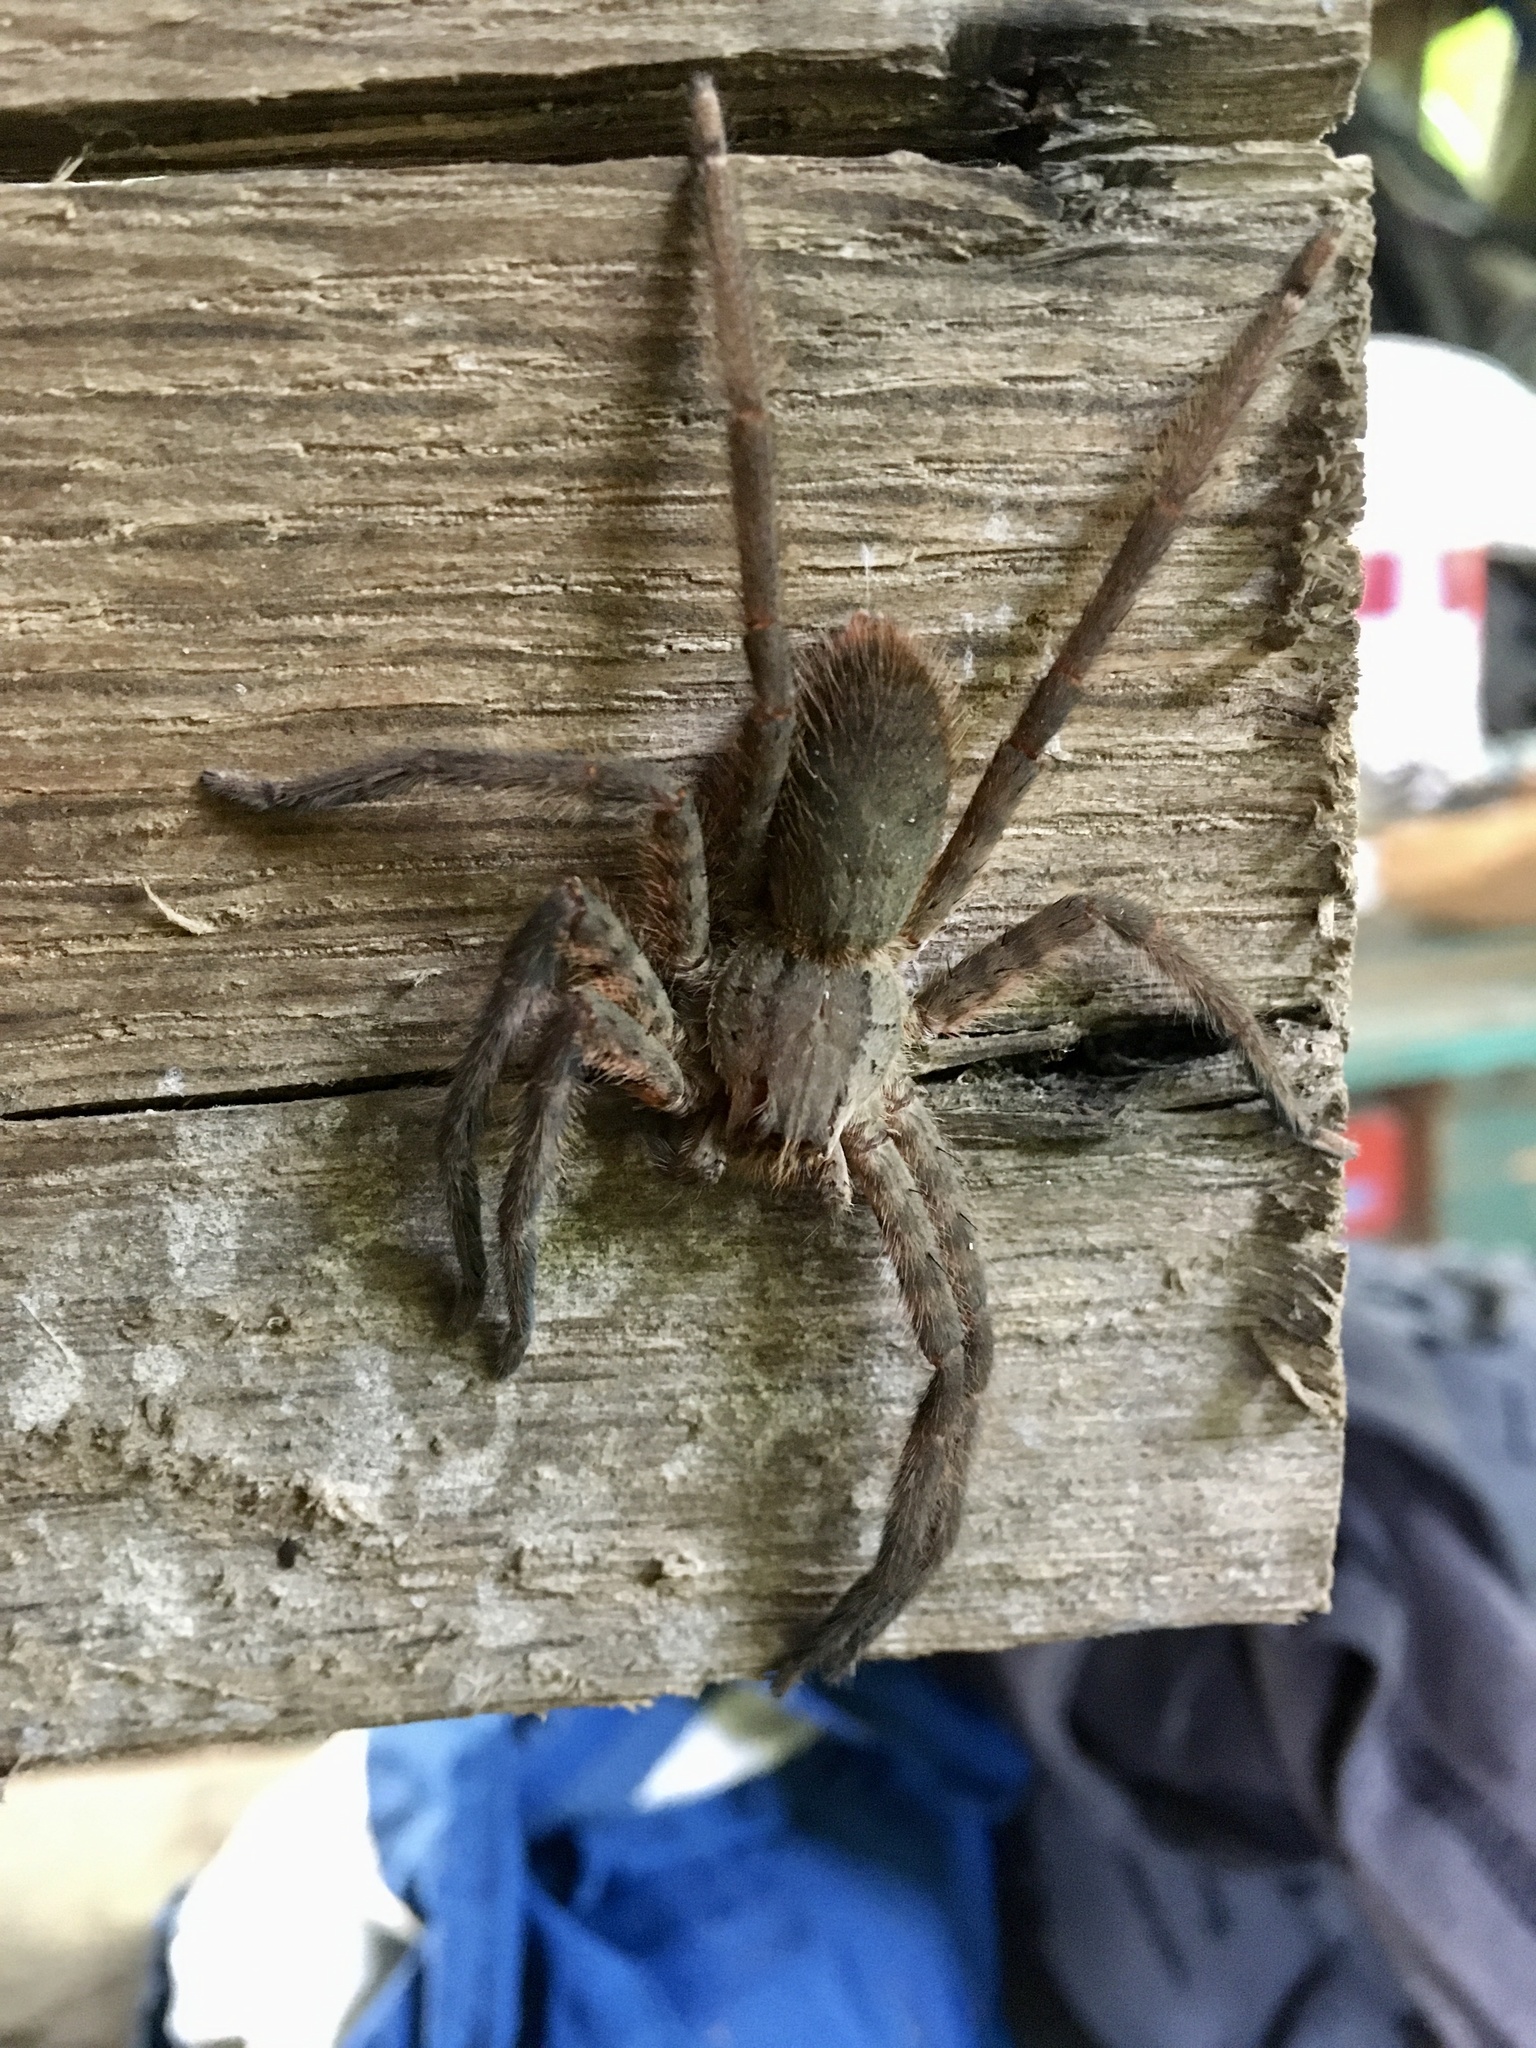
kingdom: Animalia
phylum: Arthropoda
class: Arachnida
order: Araneae
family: Trechaleidae
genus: Cupiennius
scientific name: Cupiennius salei
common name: Wandering spiders
